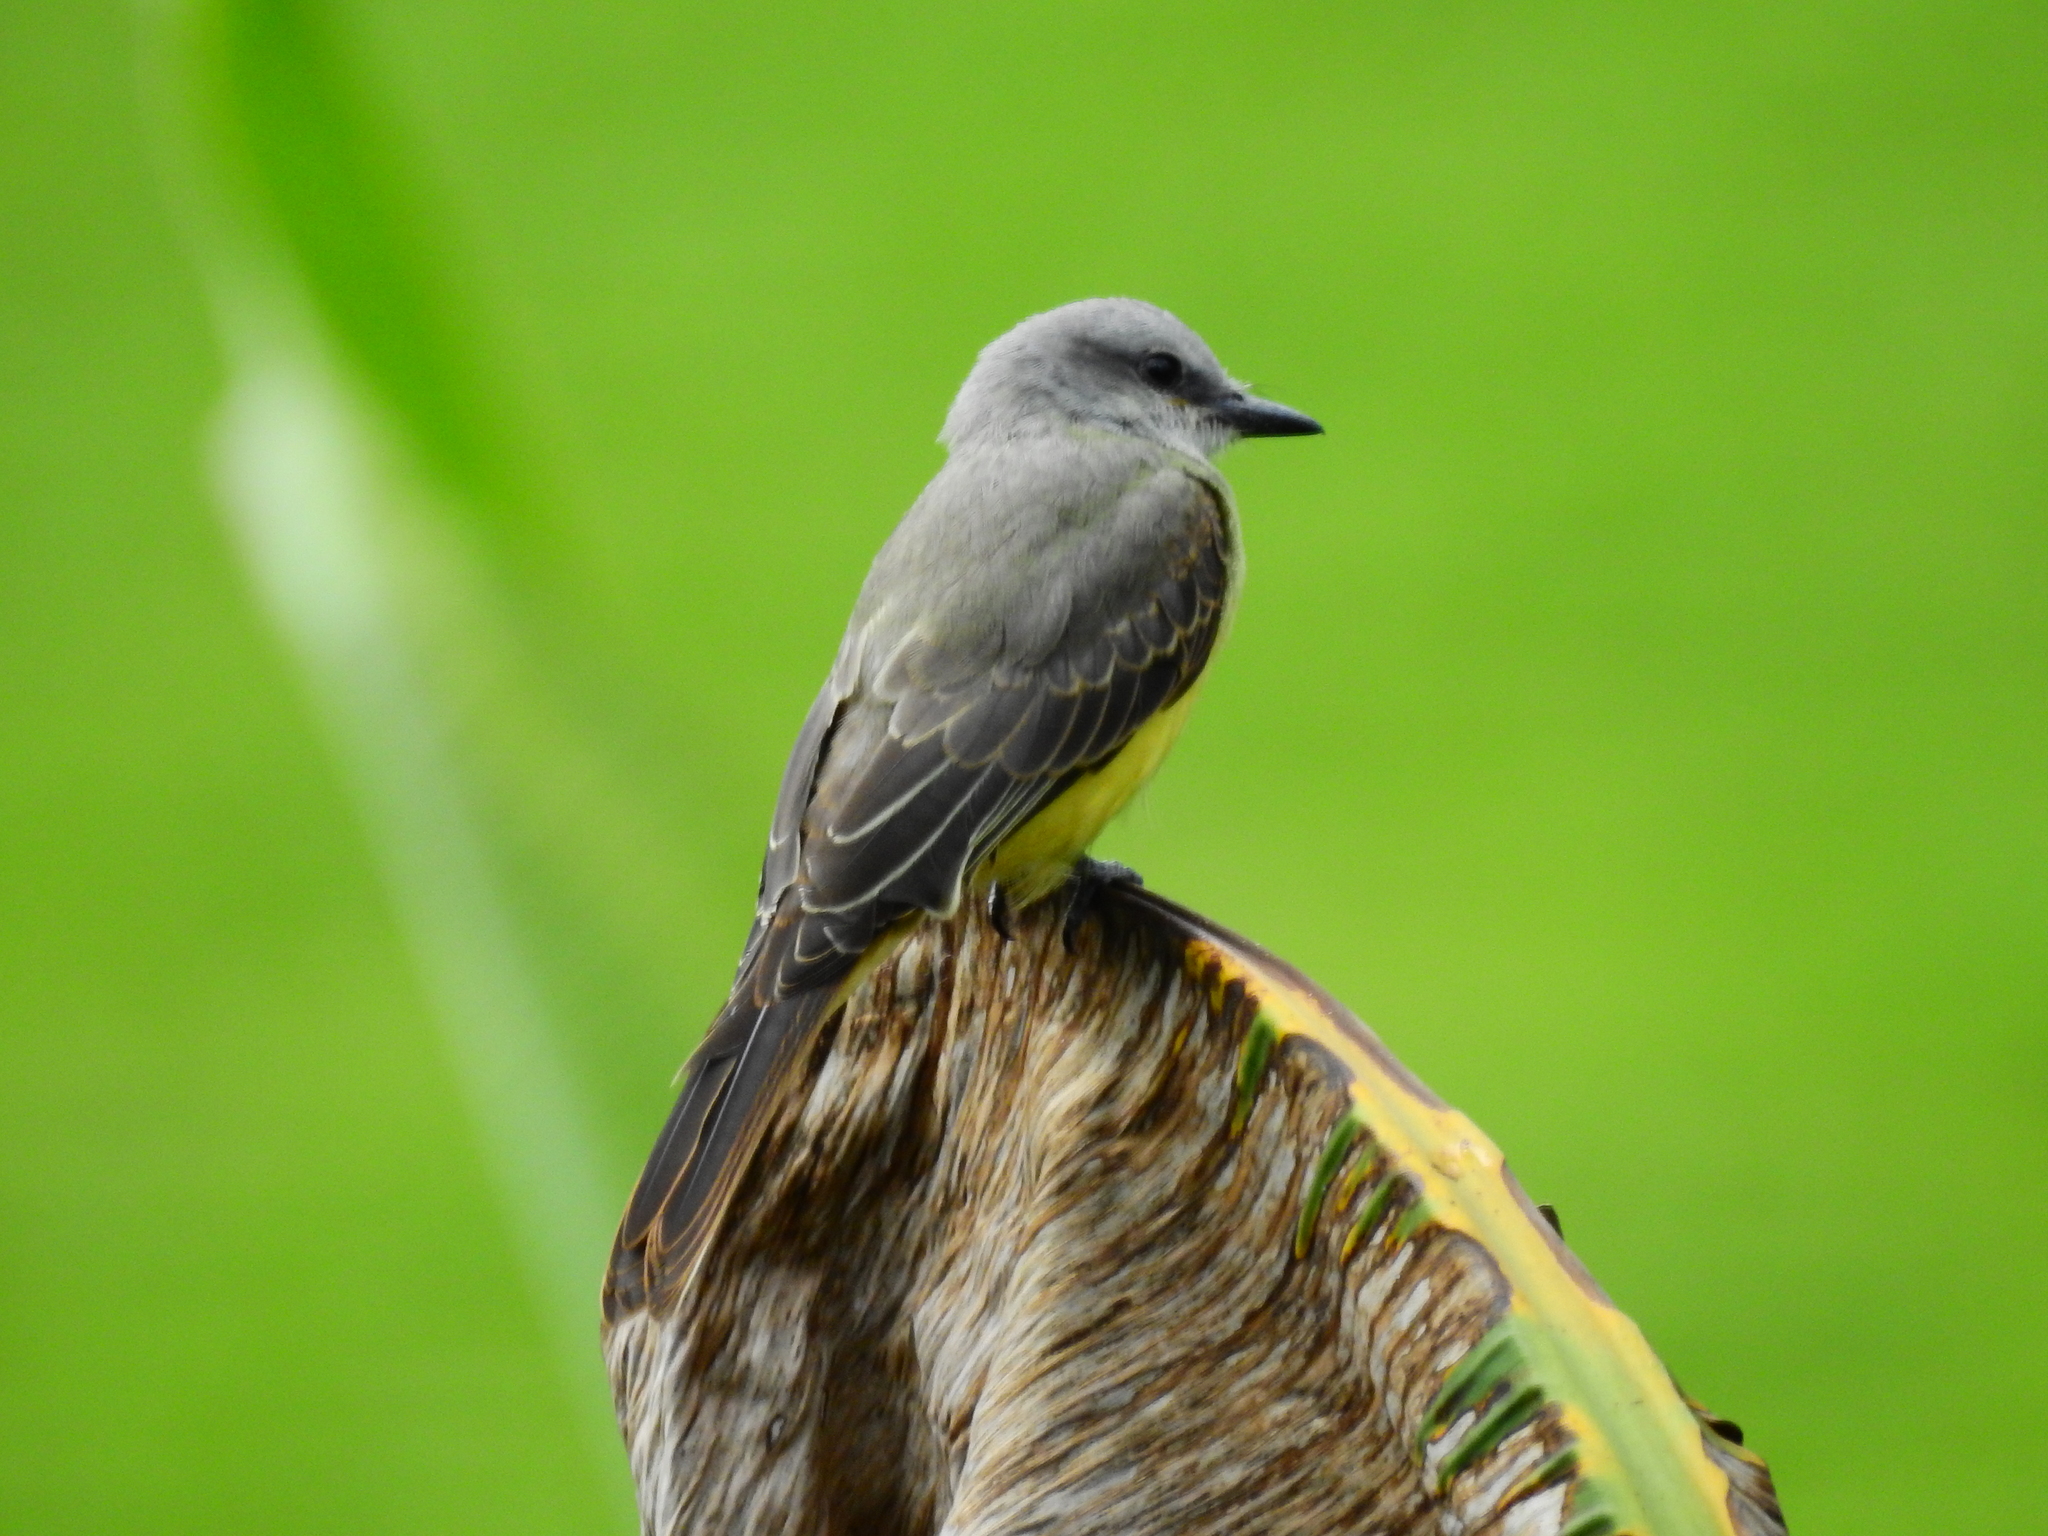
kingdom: Animalia
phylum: Chordata
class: Aves
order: Passeriformes
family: Tyrannidae
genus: Tyrannus
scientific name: Tyrannus melancholicus
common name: Tropical kingbird
